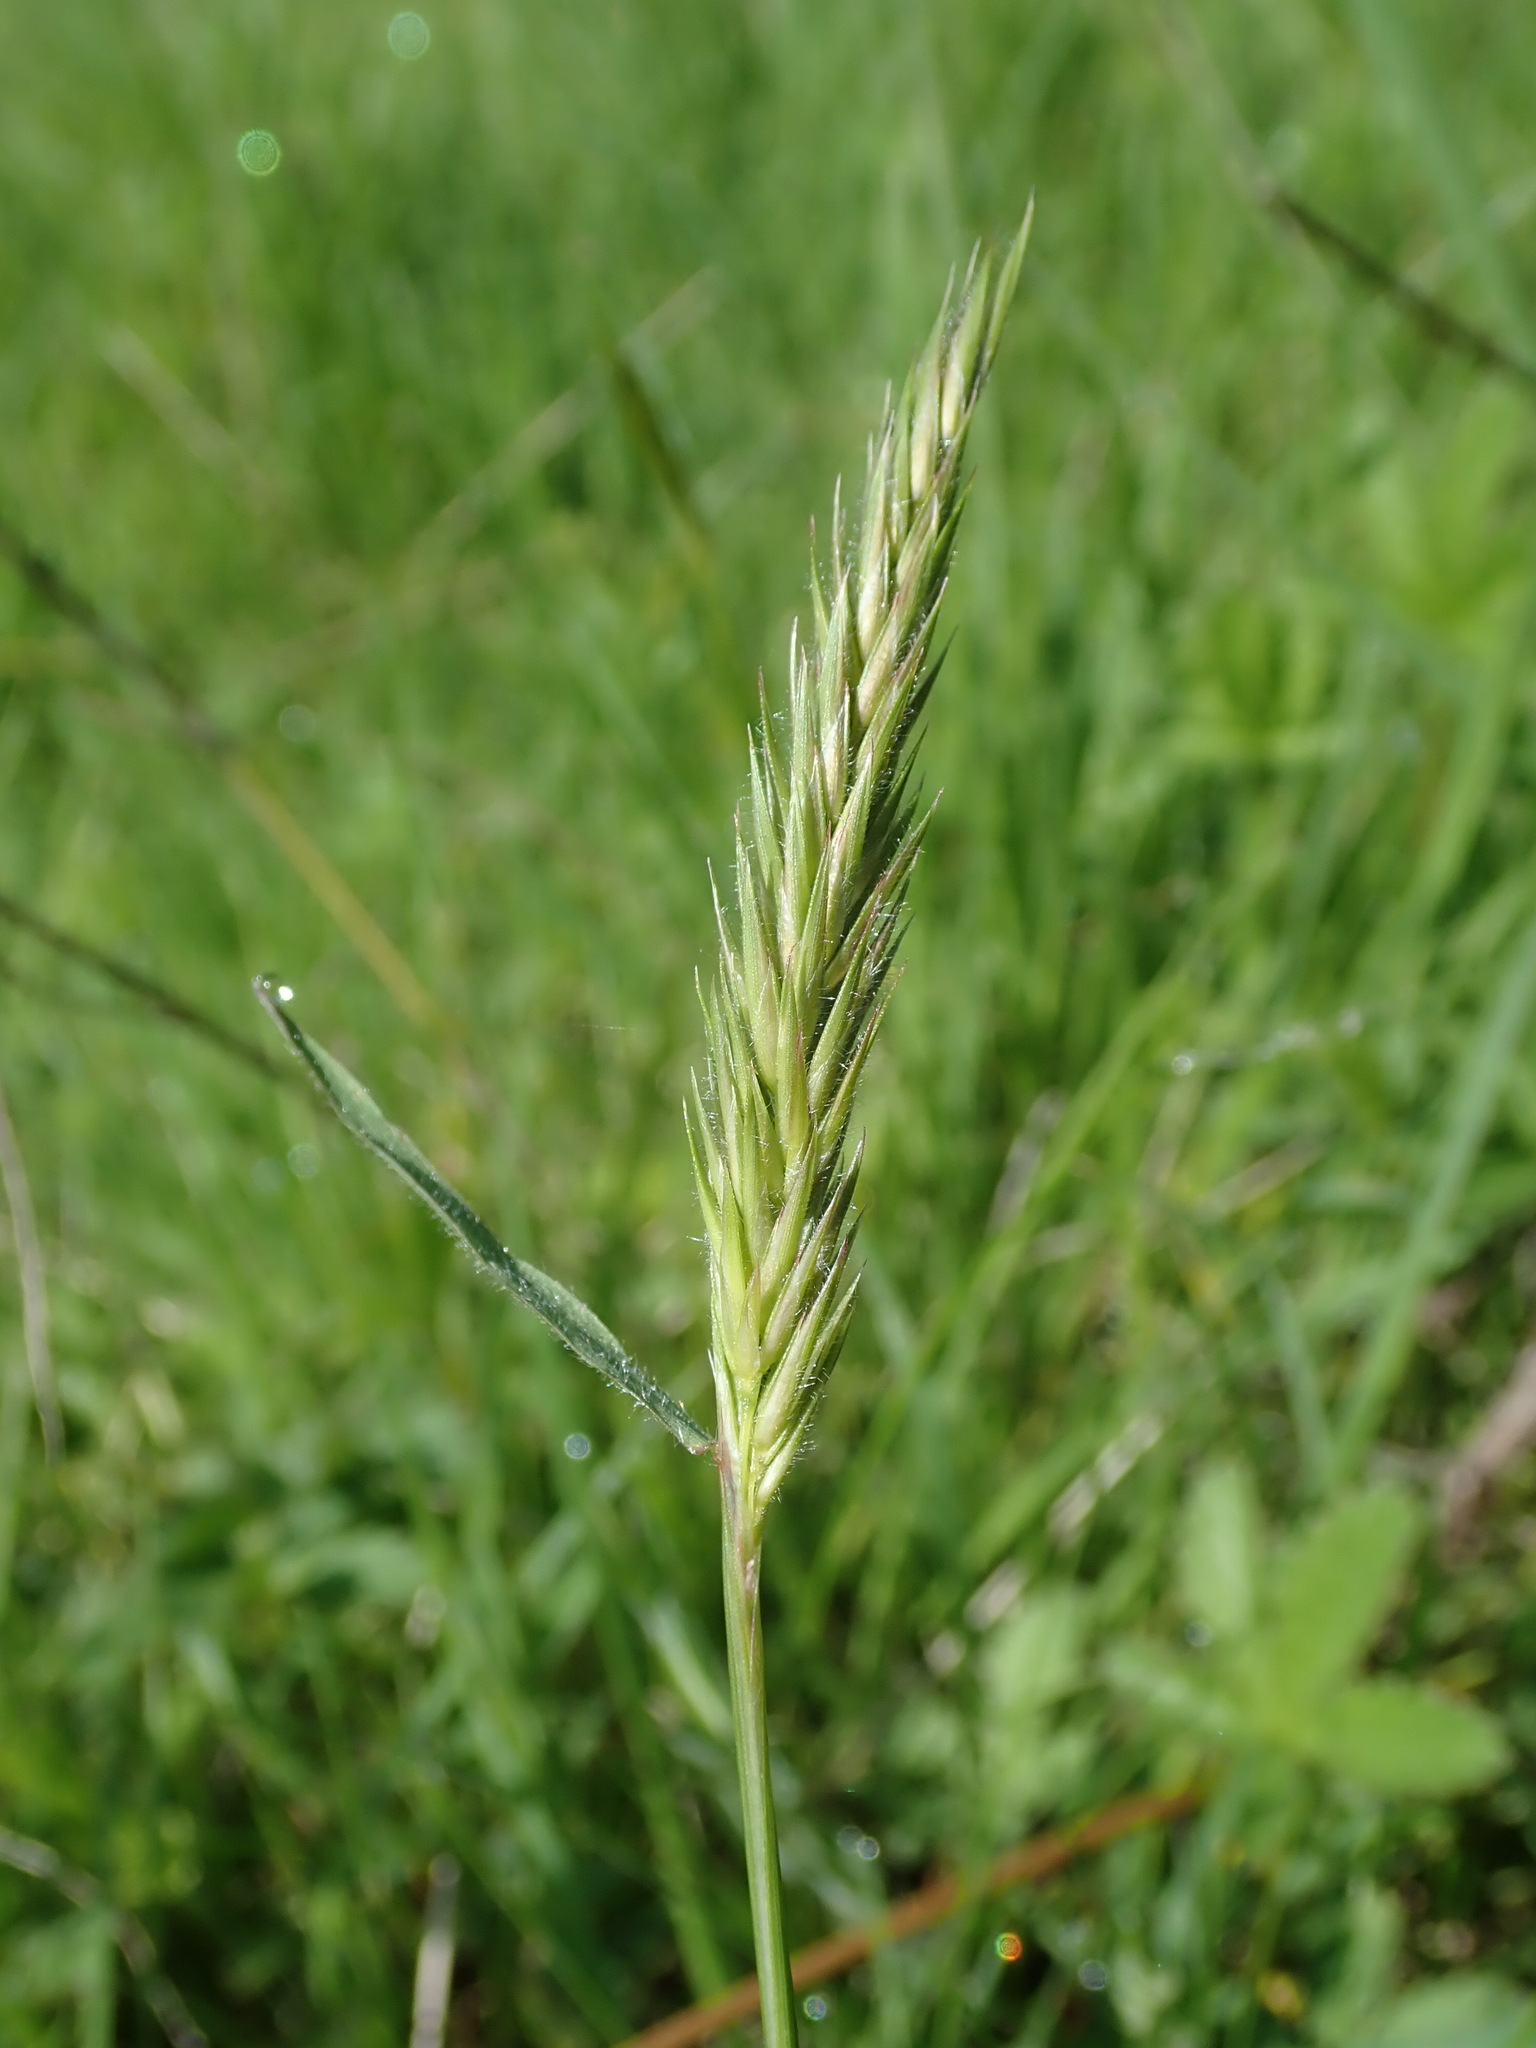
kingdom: Plantae
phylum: Tracheophyta
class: Liliopsida
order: Poales
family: Poaceae
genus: Anthoxanthum
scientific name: Anthoxanthum odoratum
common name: Sweet vernalgrass
